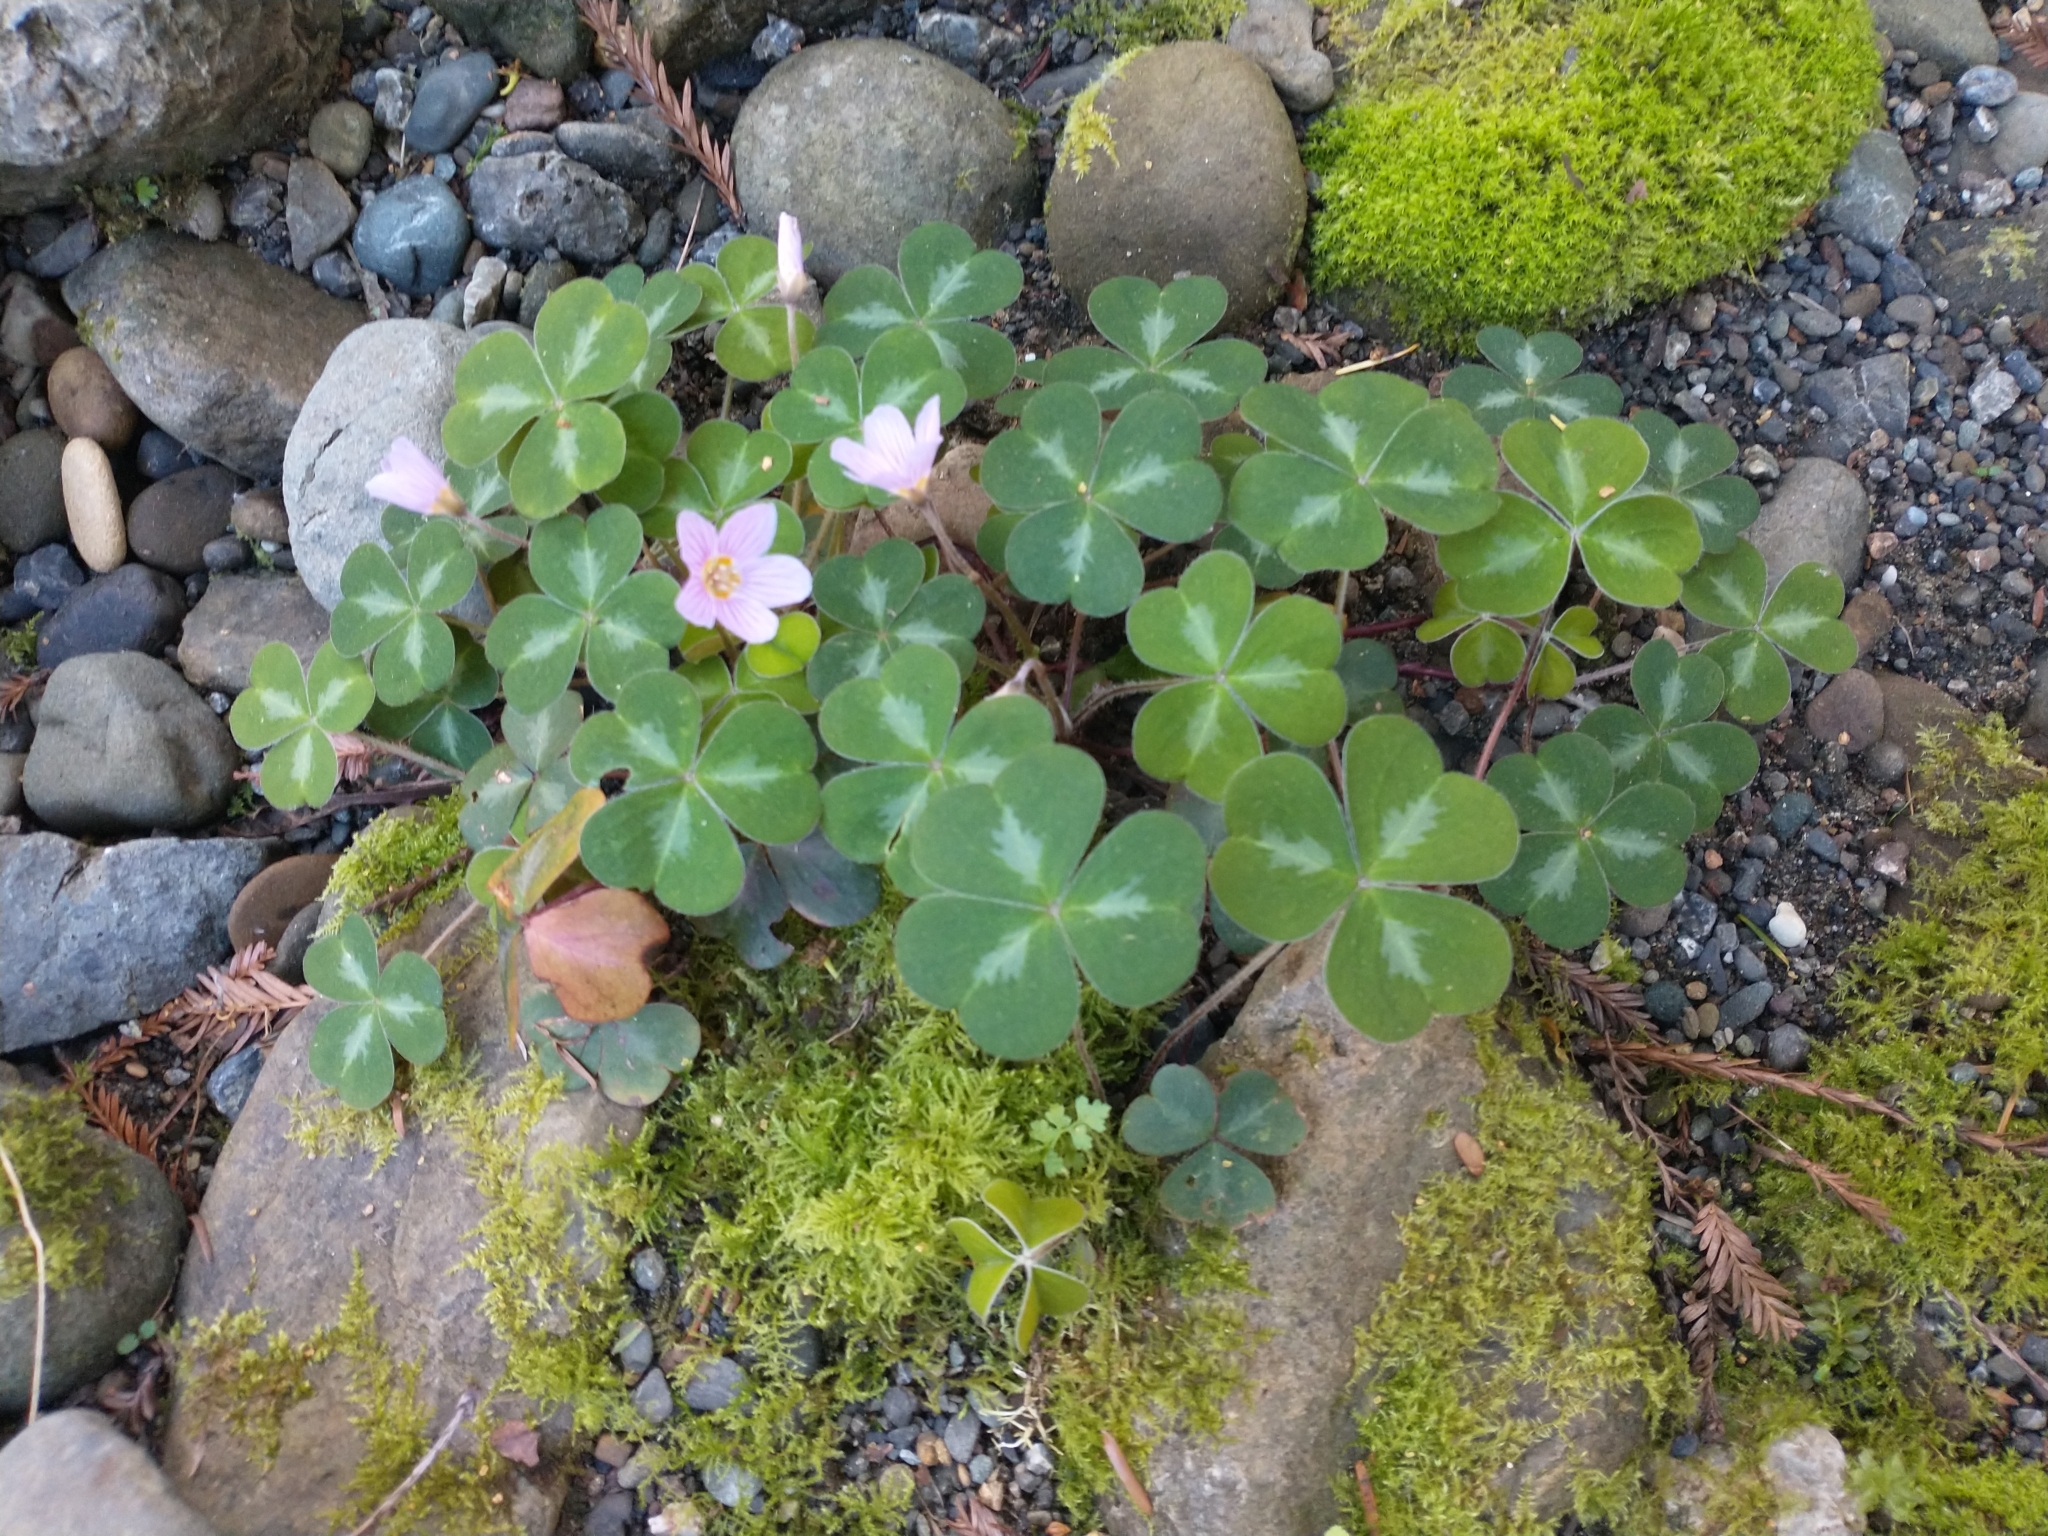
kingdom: Plantae
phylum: Tracheophyta
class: Magnoliopsida
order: Oxalidales
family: Oxalidaceae
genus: Oxalis
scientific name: Oxalis oregana
